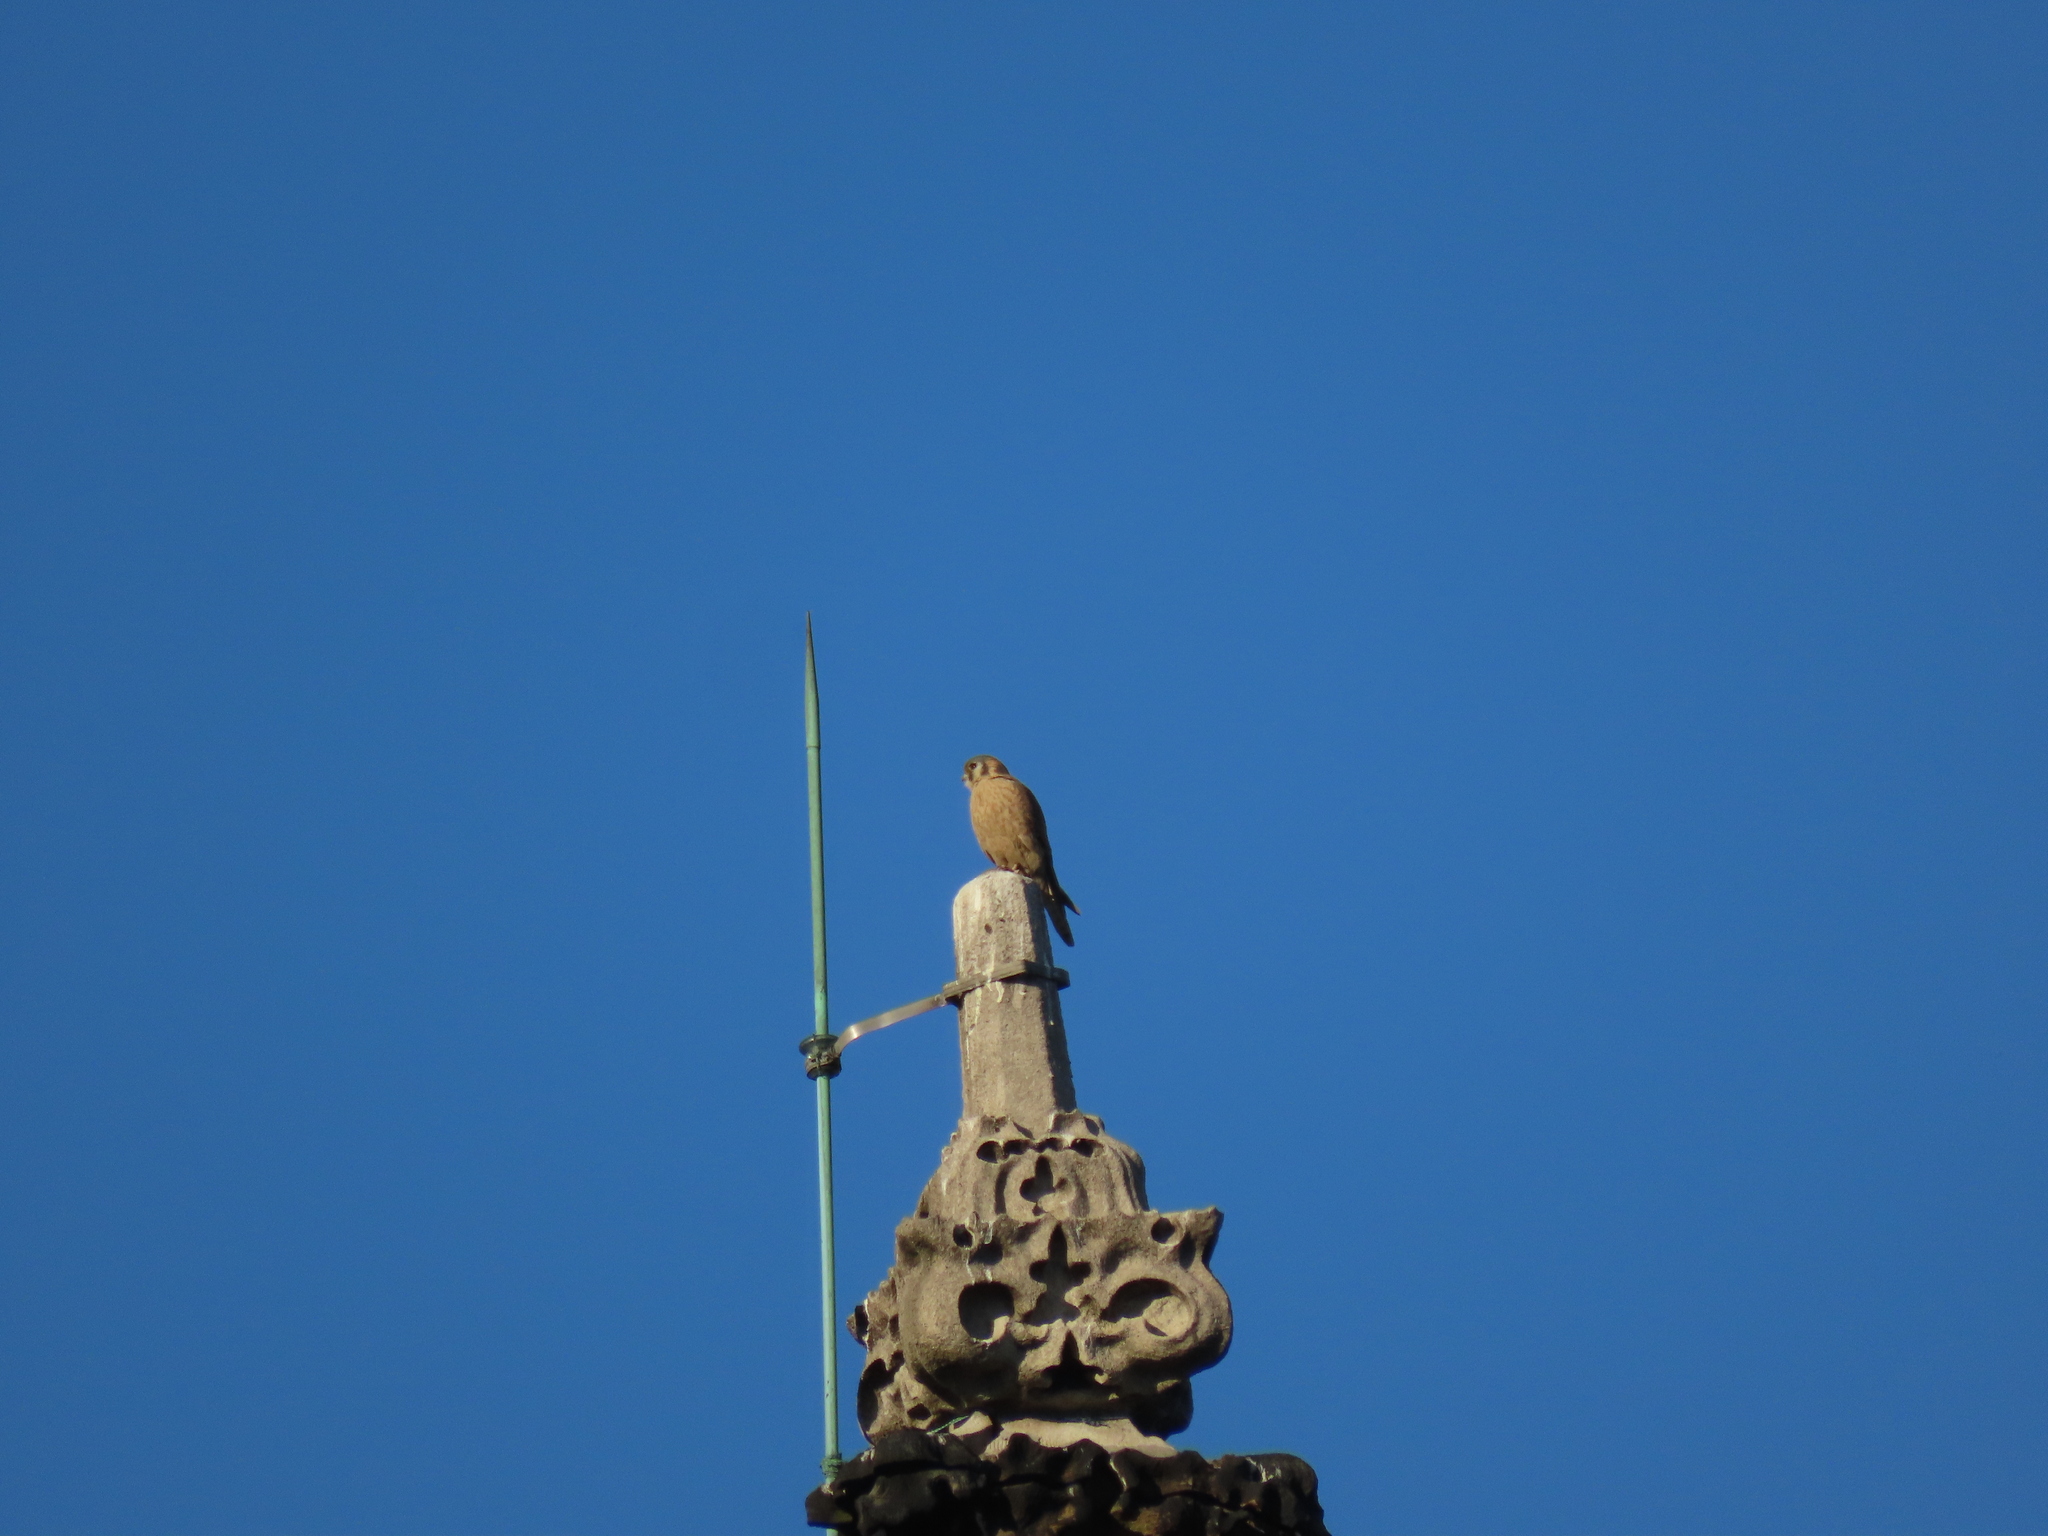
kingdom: Animalia
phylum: Chordata
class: Aves
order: Falconiformes
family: Falconidae
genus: Falco
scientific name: Falco sparverius
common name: American kestrel
